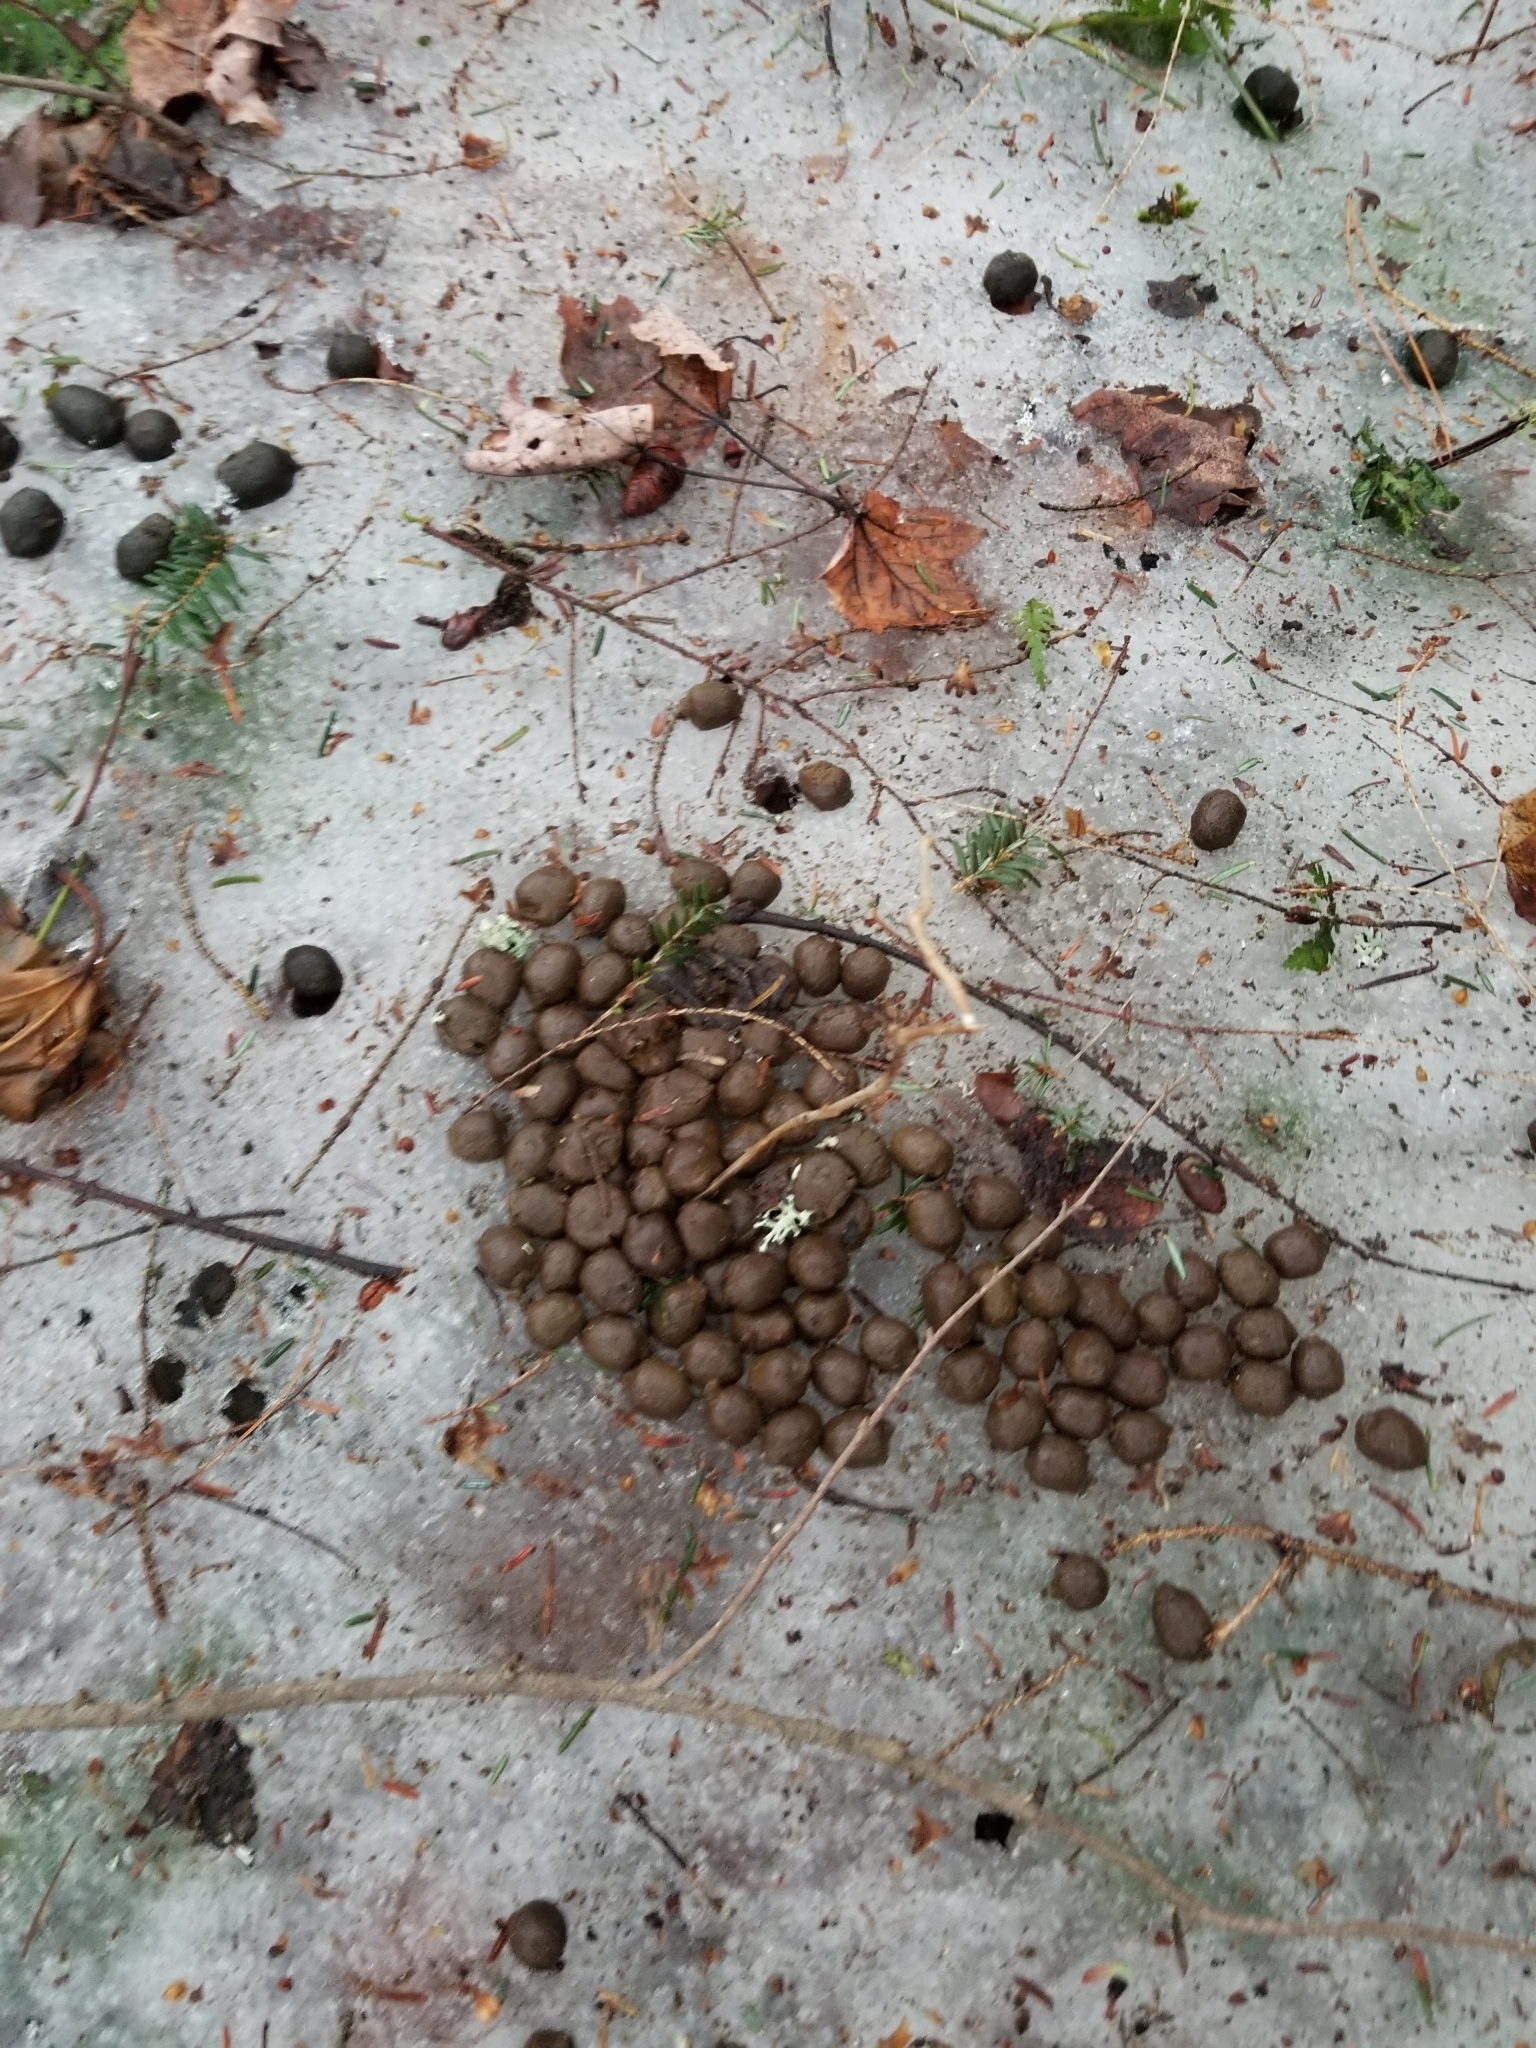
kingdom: Animalia
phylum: Chordata
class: Mammalia
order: Artiodactyla
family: Cervidae
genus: Odocoileus
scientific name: Odocoileus virginianus
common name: White-tailed deer
